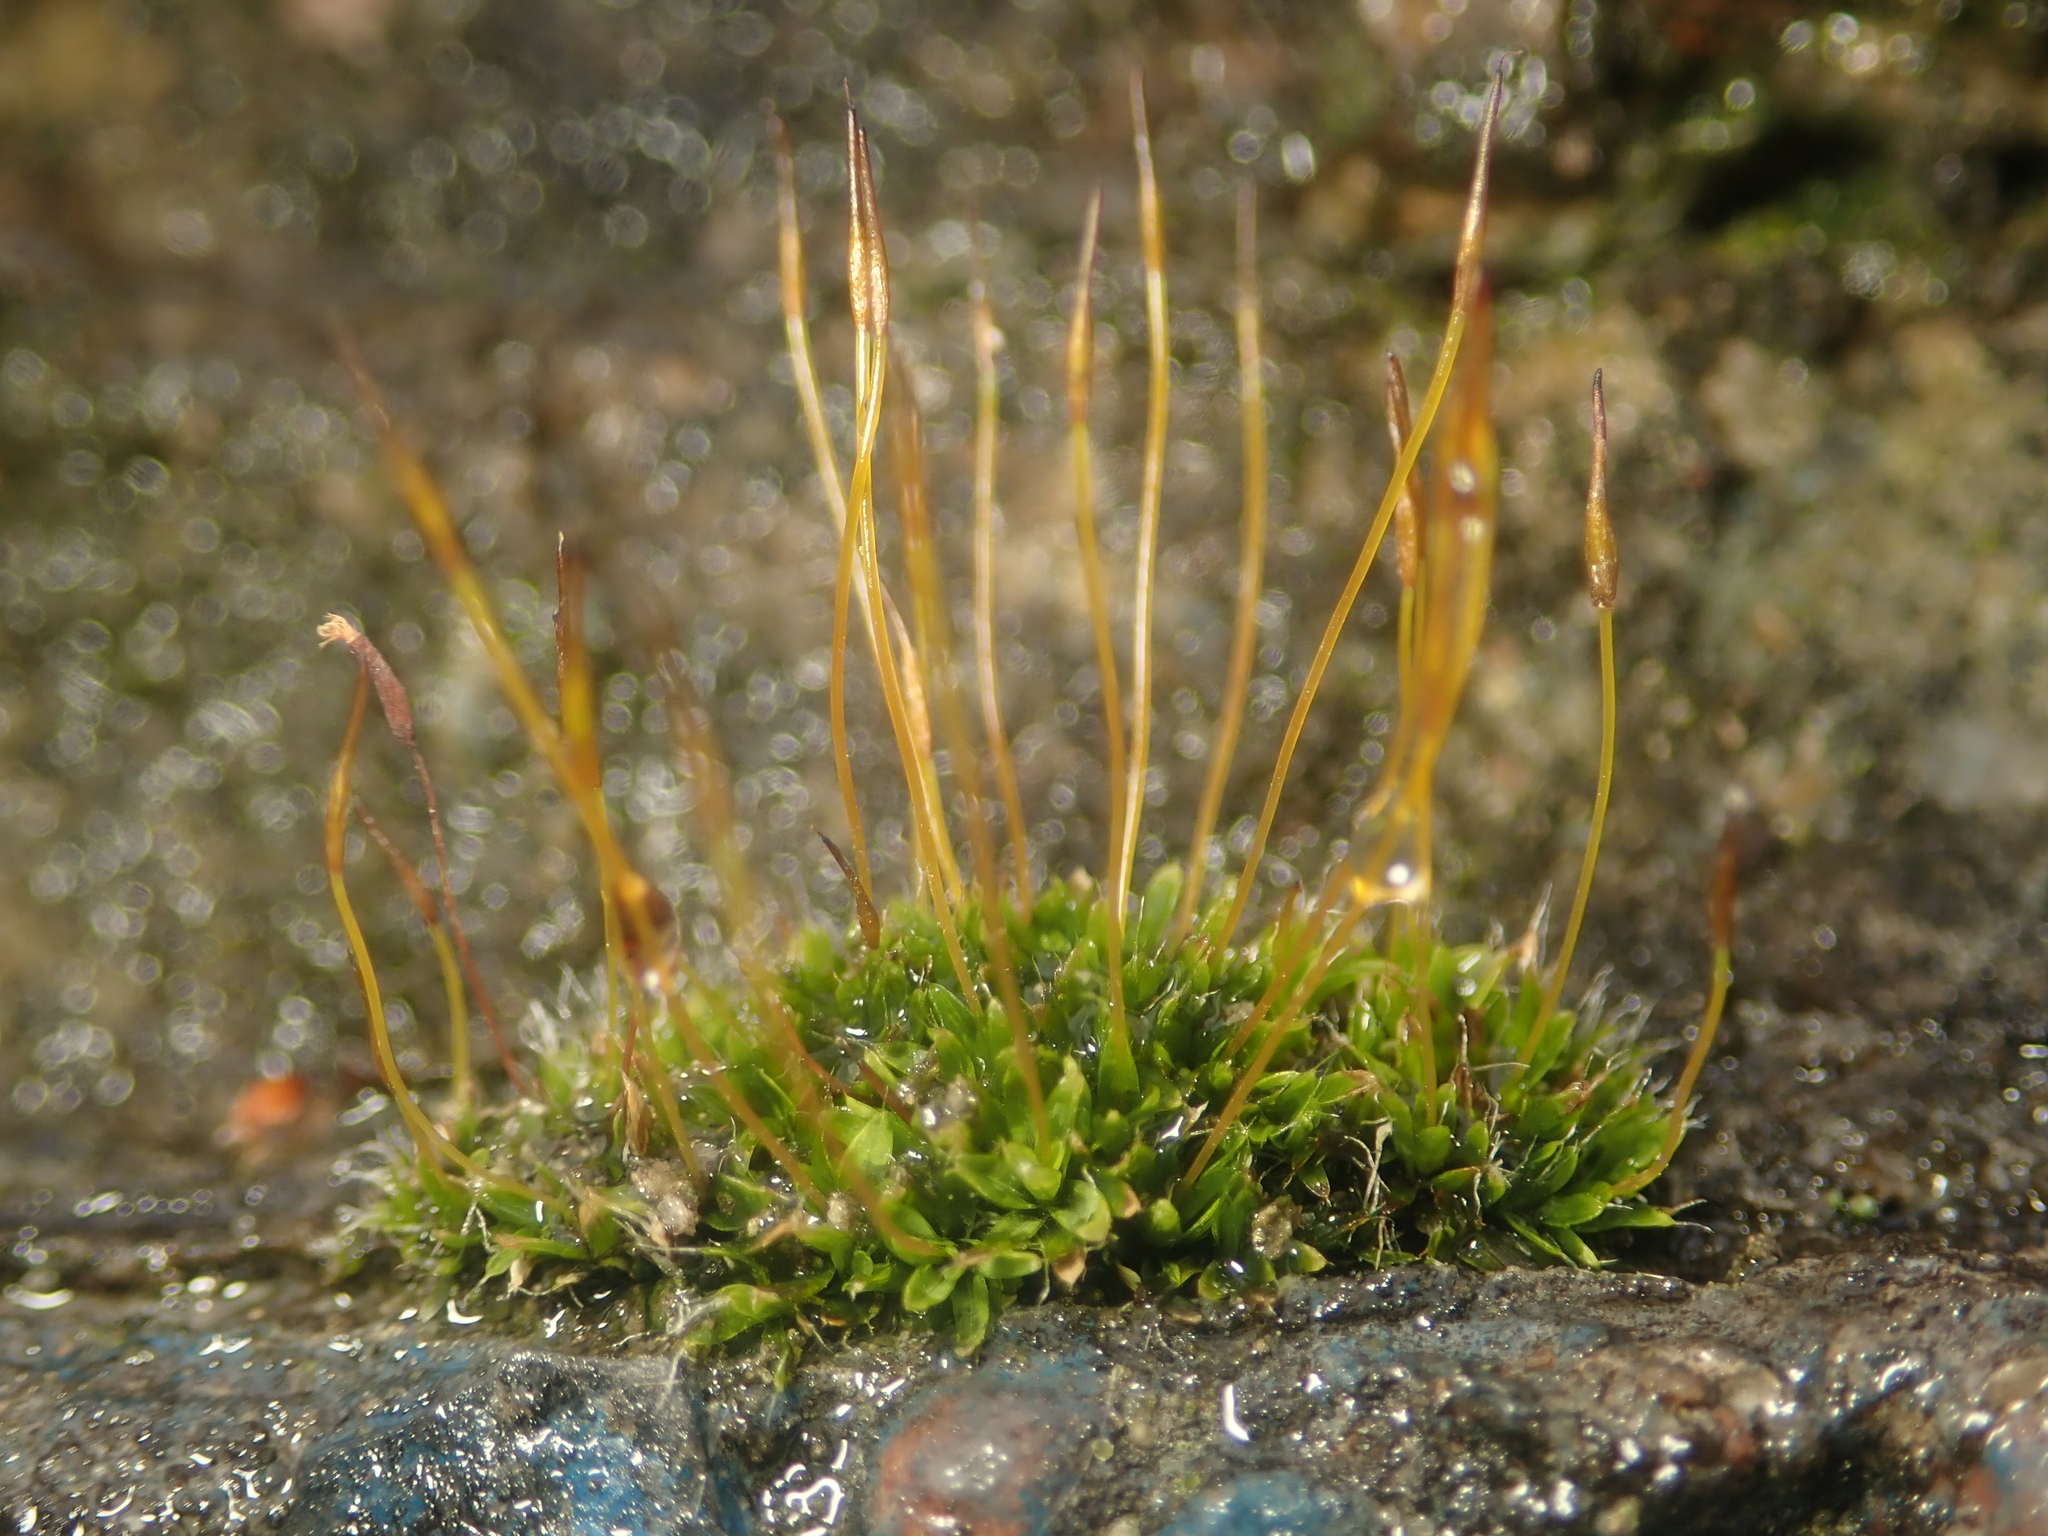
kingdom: Plantae
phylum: Bryophyta
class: Bryopsida
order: Pottiales
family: Pottiaceae
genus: Tortula
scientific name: Tortula muralis
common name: Wall screw-moss
